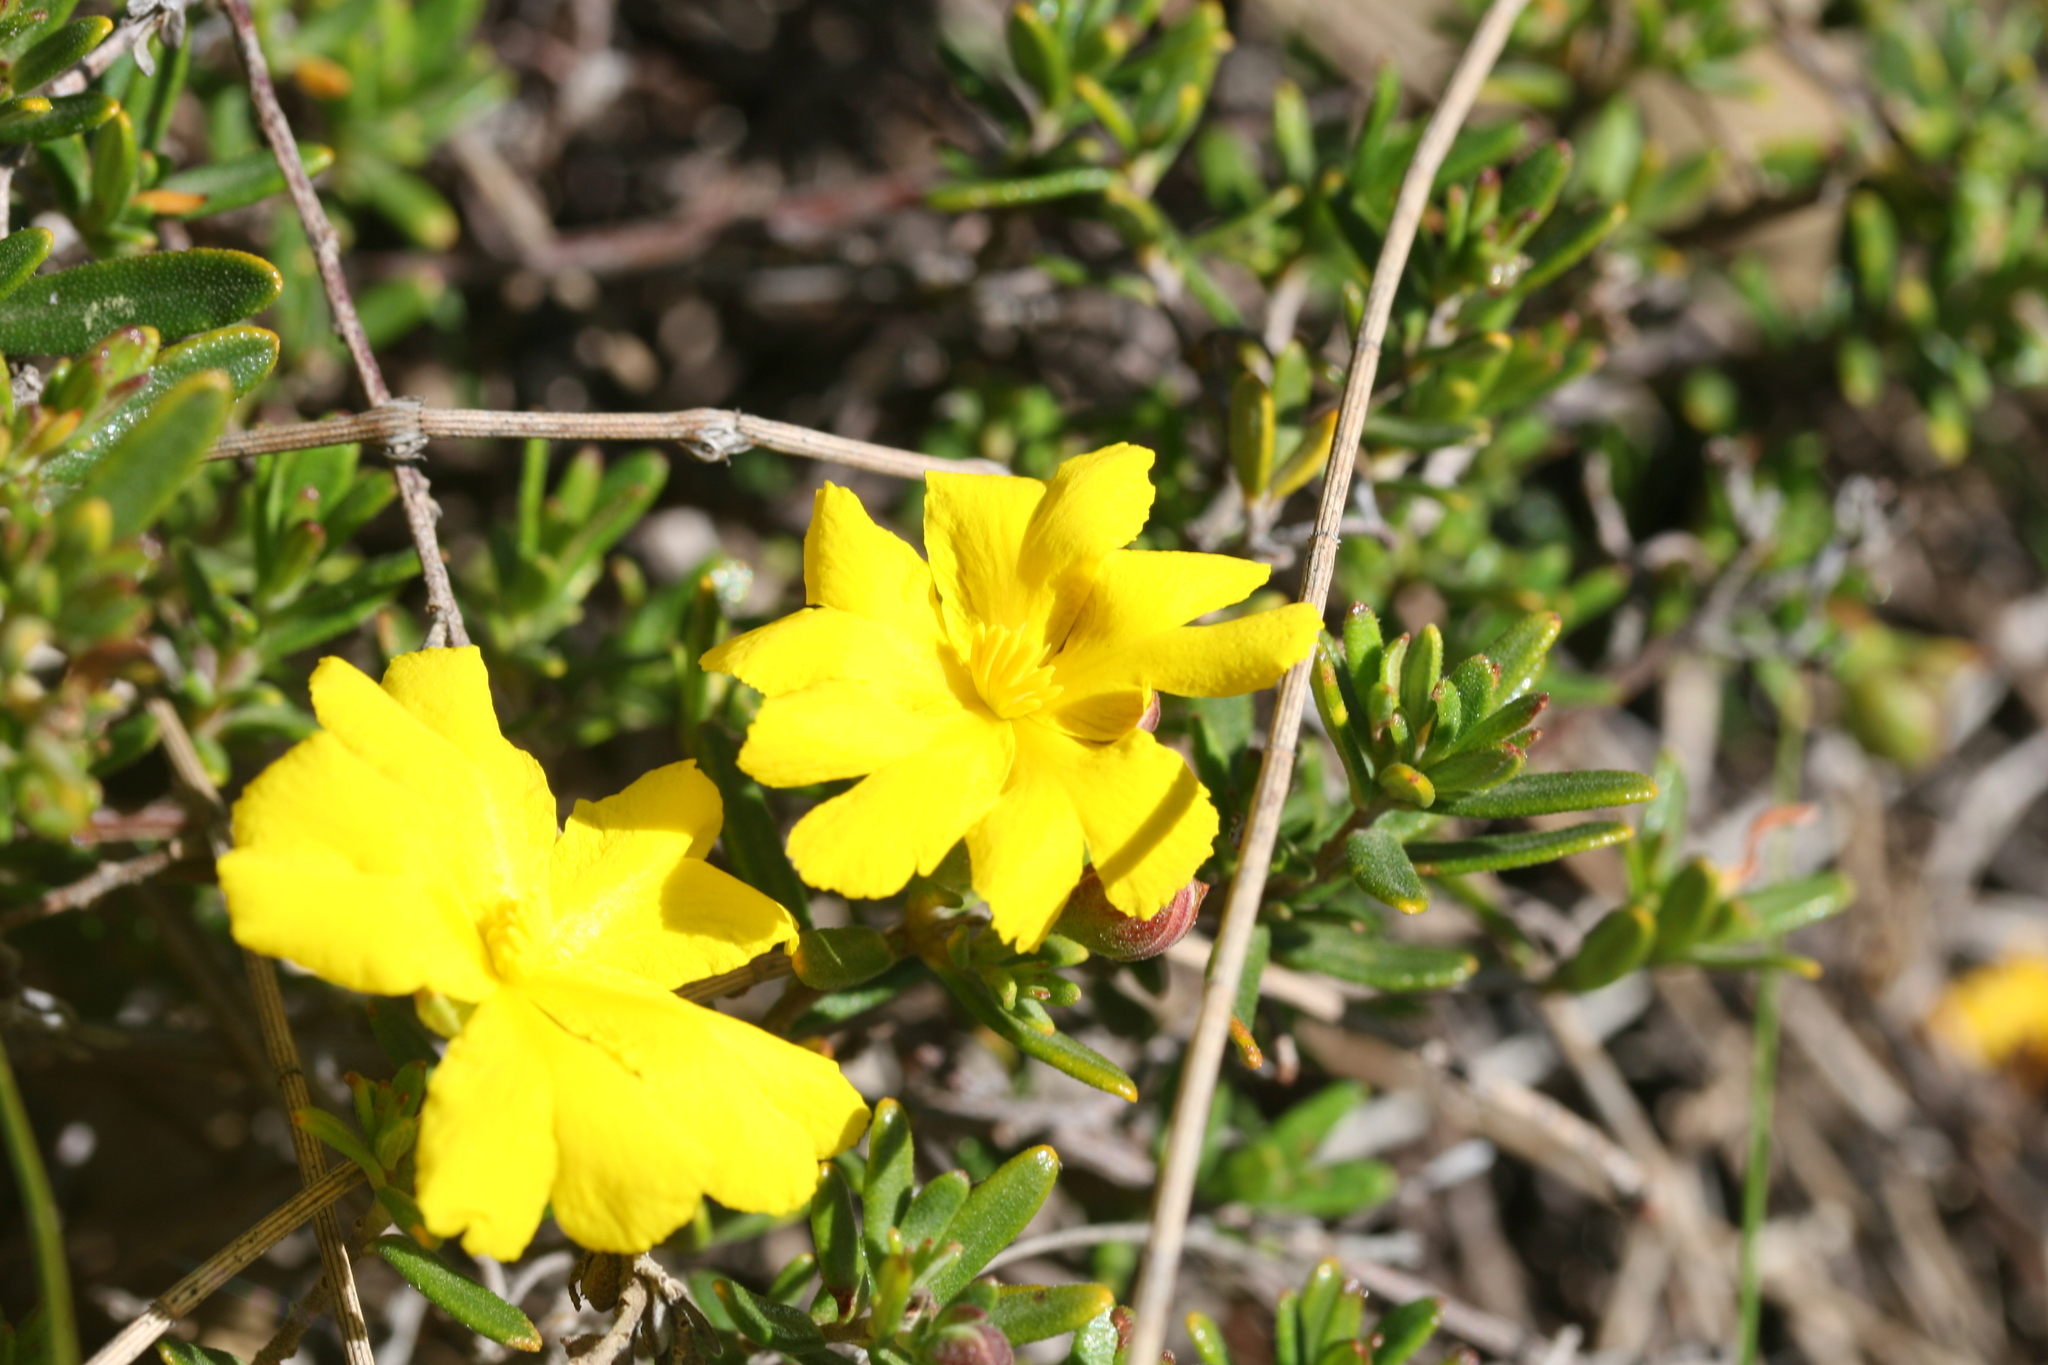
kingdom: Plantae
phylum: Tracheophyta
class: Magnoliopsida
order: Dilleniales
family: Dilleniaceae
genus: Hibbertia
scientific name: Hibbertia hypericoides
